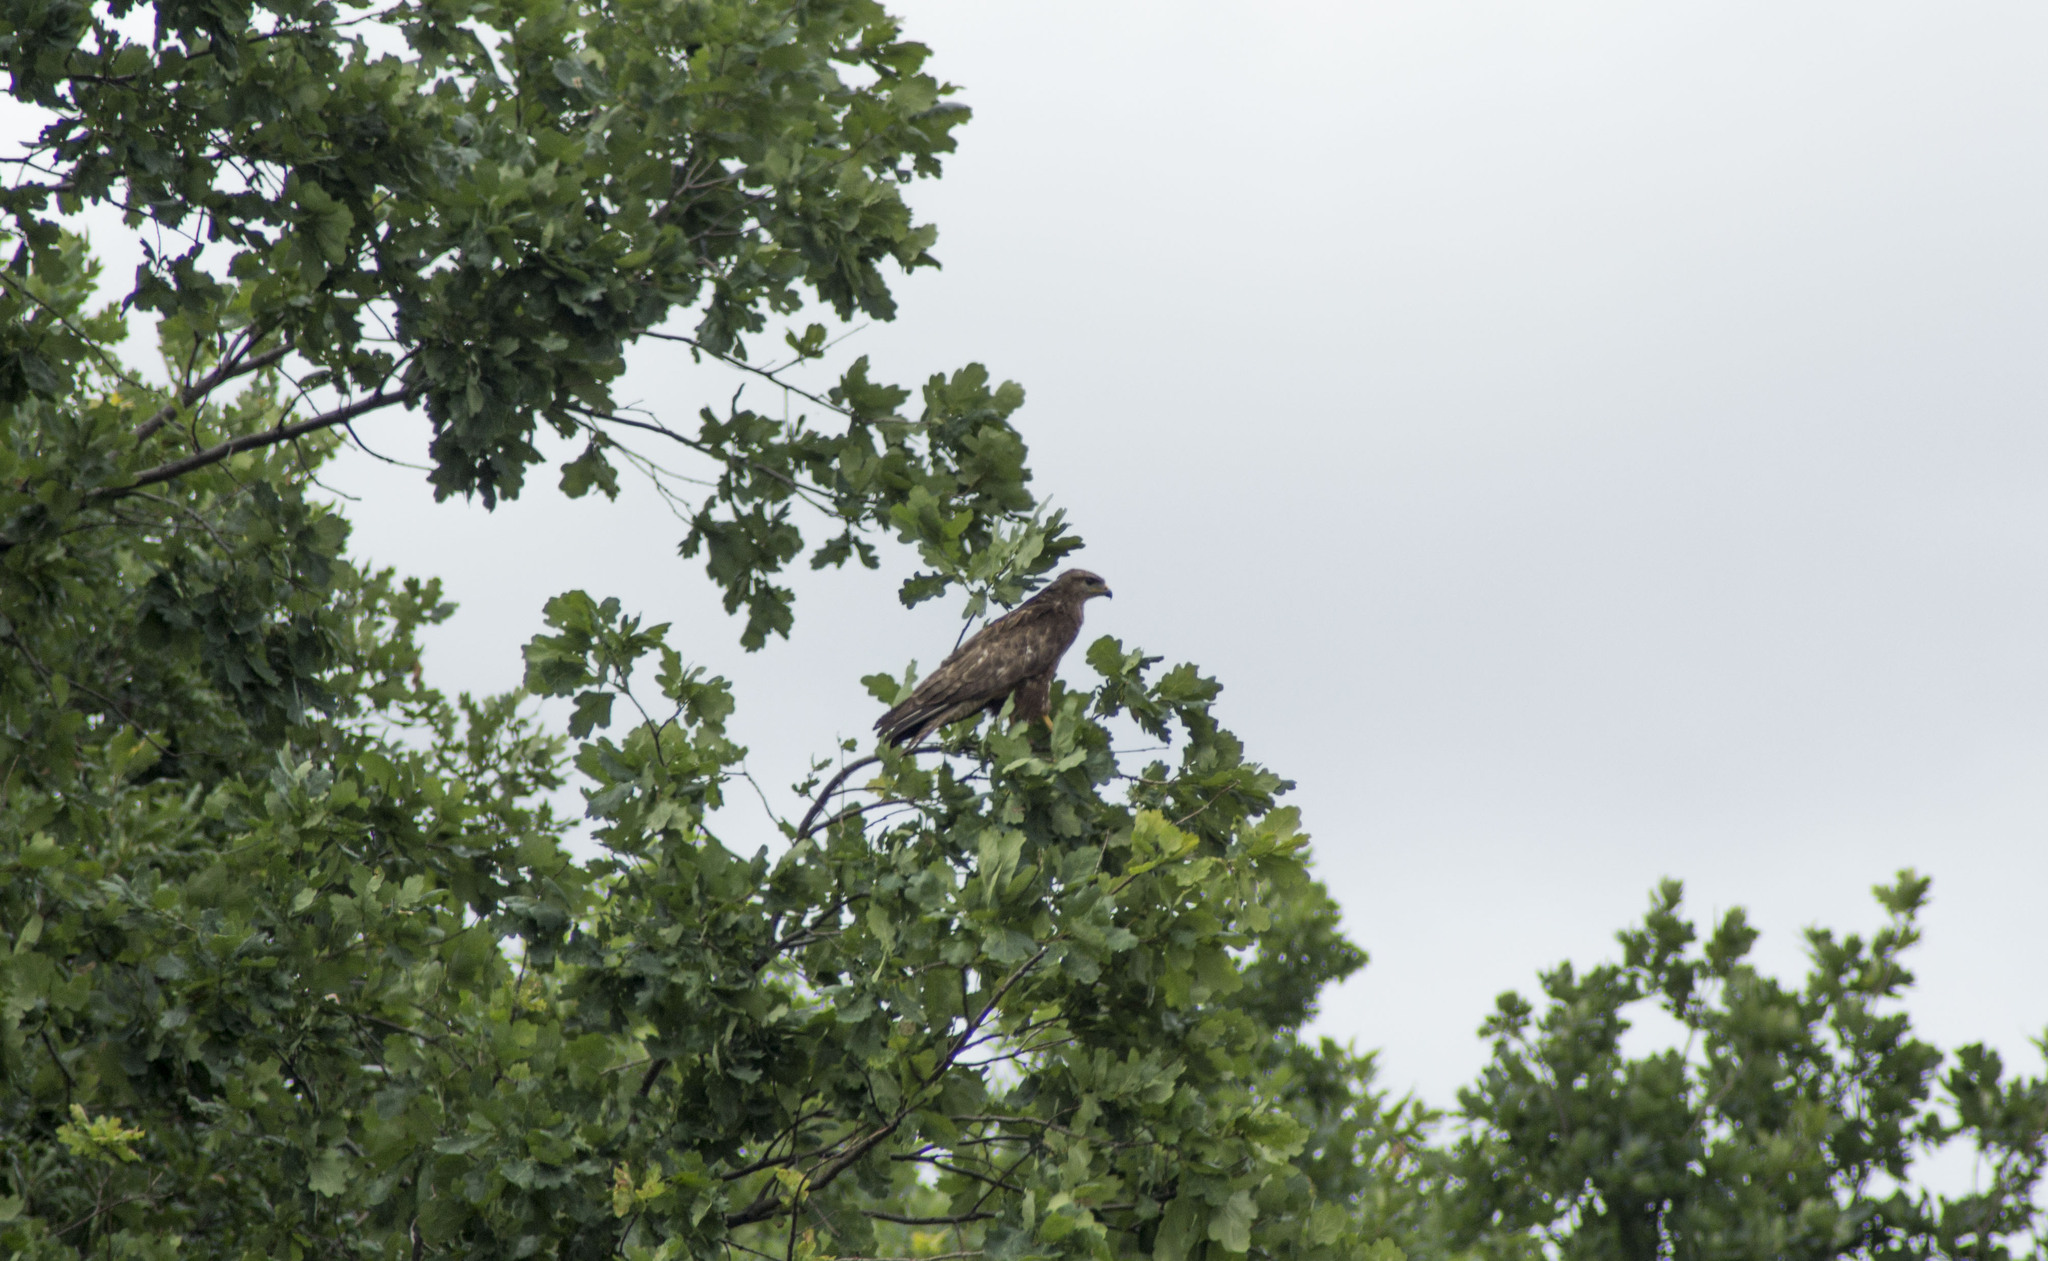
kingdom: Animalia
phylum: Chordata
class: Aves
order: Accipitriformes
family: Accipitridae
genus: Buteo
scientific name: Buteo buteo
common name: Common buzzard
